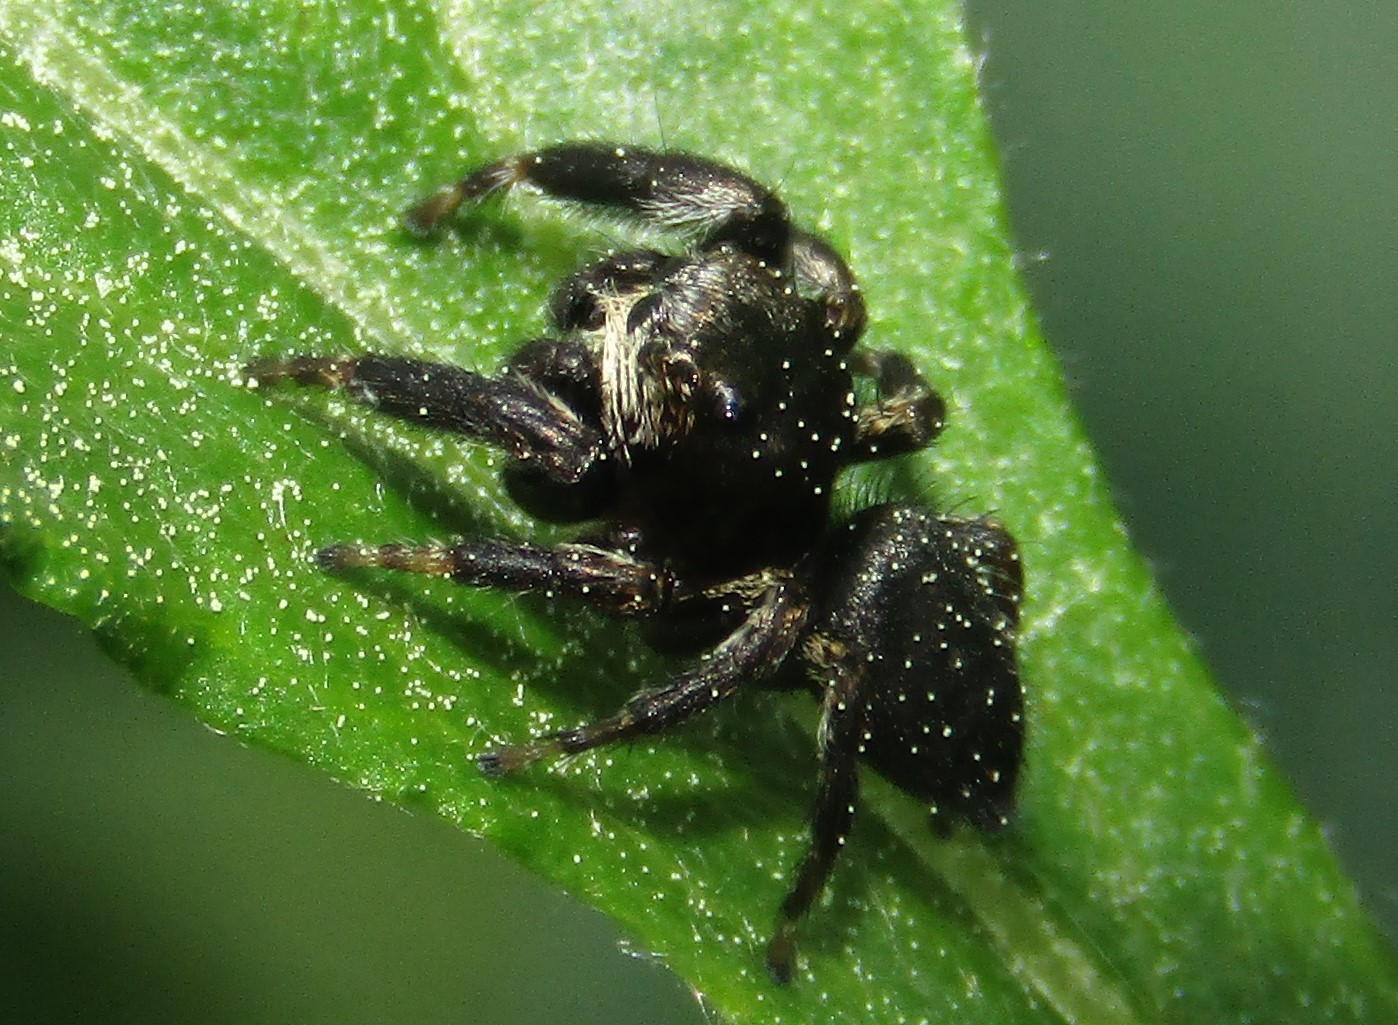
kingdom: Animalia
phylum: Arthropoda
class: Arachnida
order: Araneae
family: Salticidae
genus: Evarcha
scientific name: Evarcha arcuata
